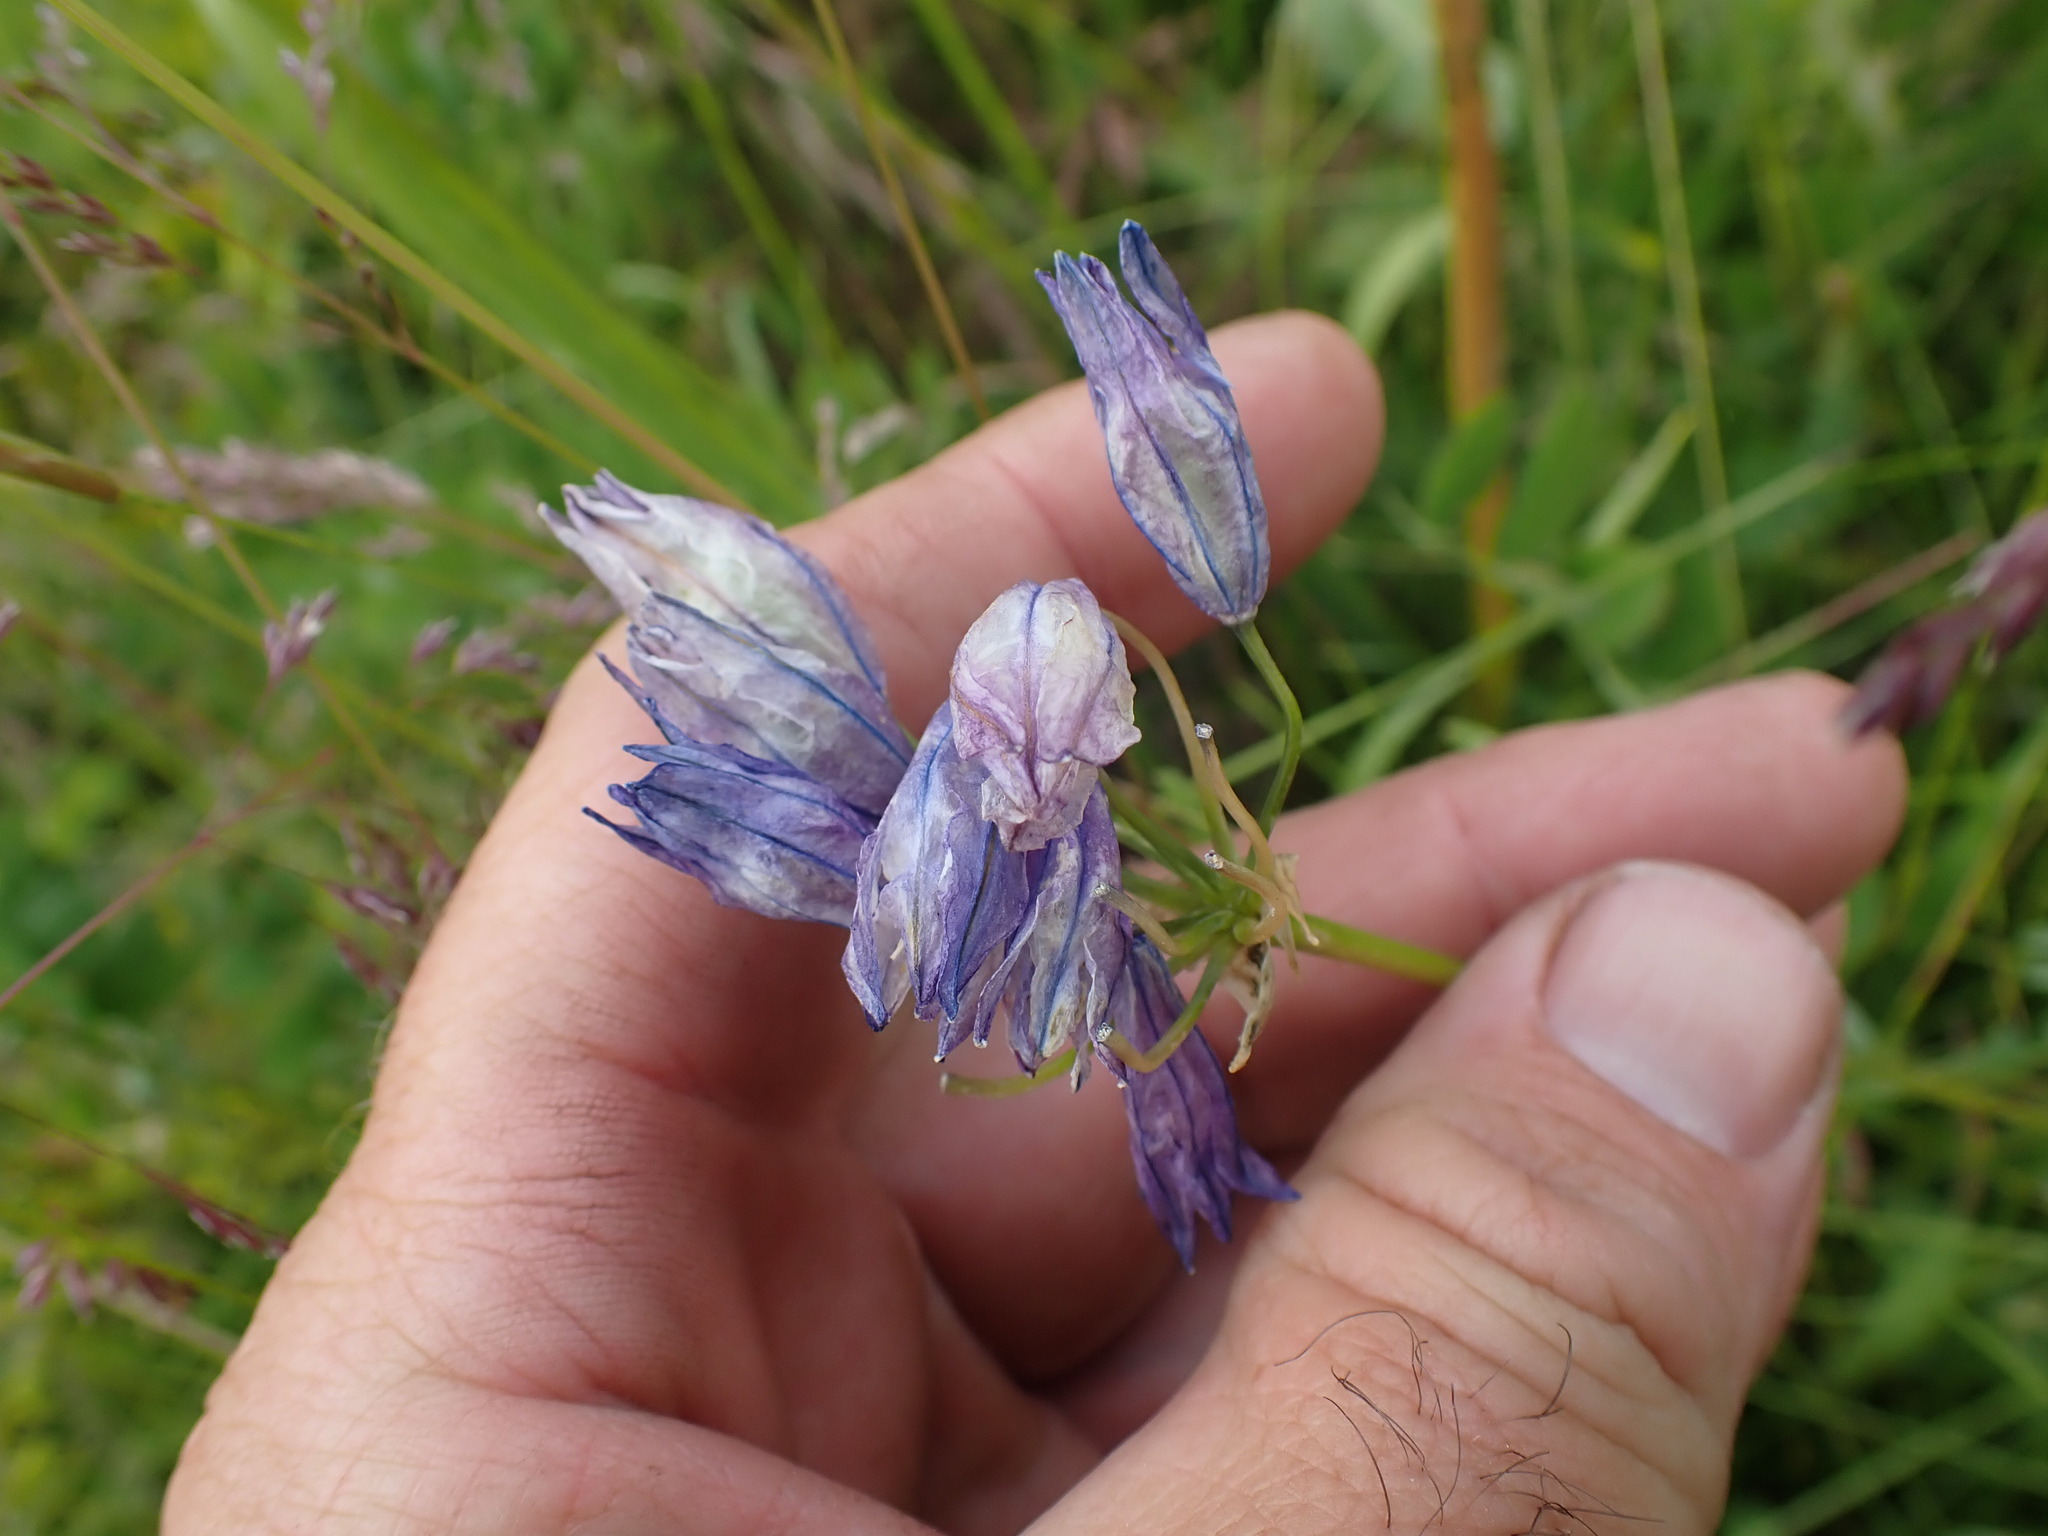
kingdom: Plantae
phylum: Tracheophyta
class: Liliopsida
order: Asparagales
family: Asparagaceae
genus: Triteleia
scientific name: Triteleia grandiflora
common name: Wild hyacinth
